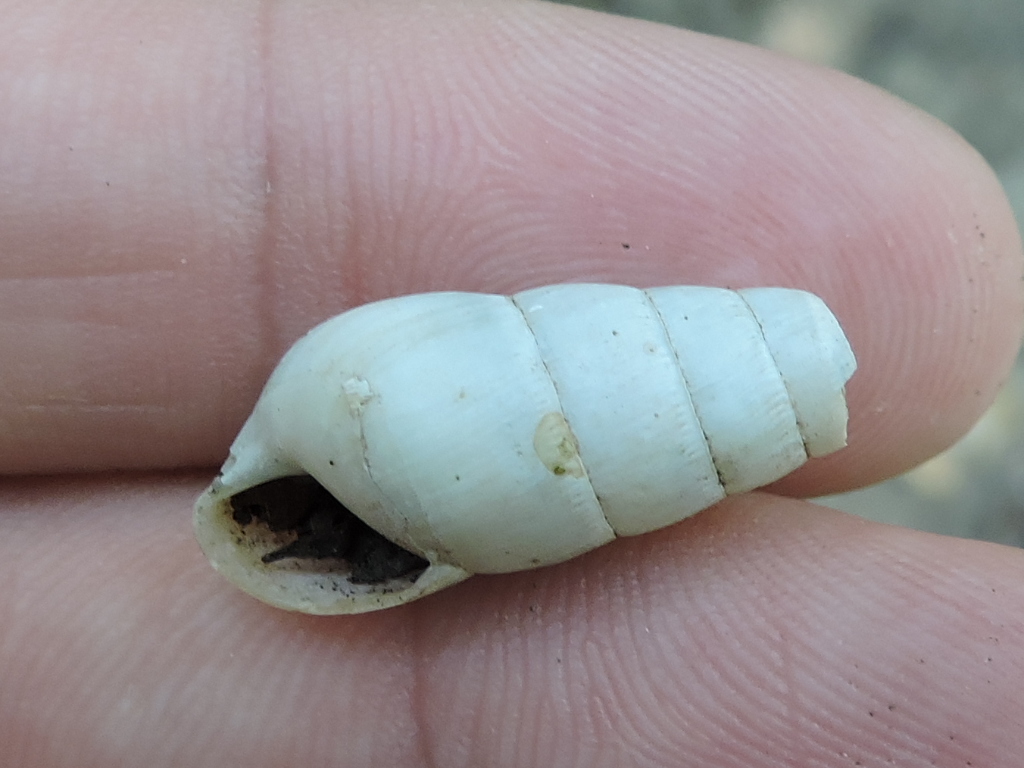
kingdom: Animalia
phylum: Mollusca
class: Gastropoda
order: Stylommatophora
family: Achatinidae
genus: Rumina
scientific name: Rumina decollata
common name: Decollate snail
